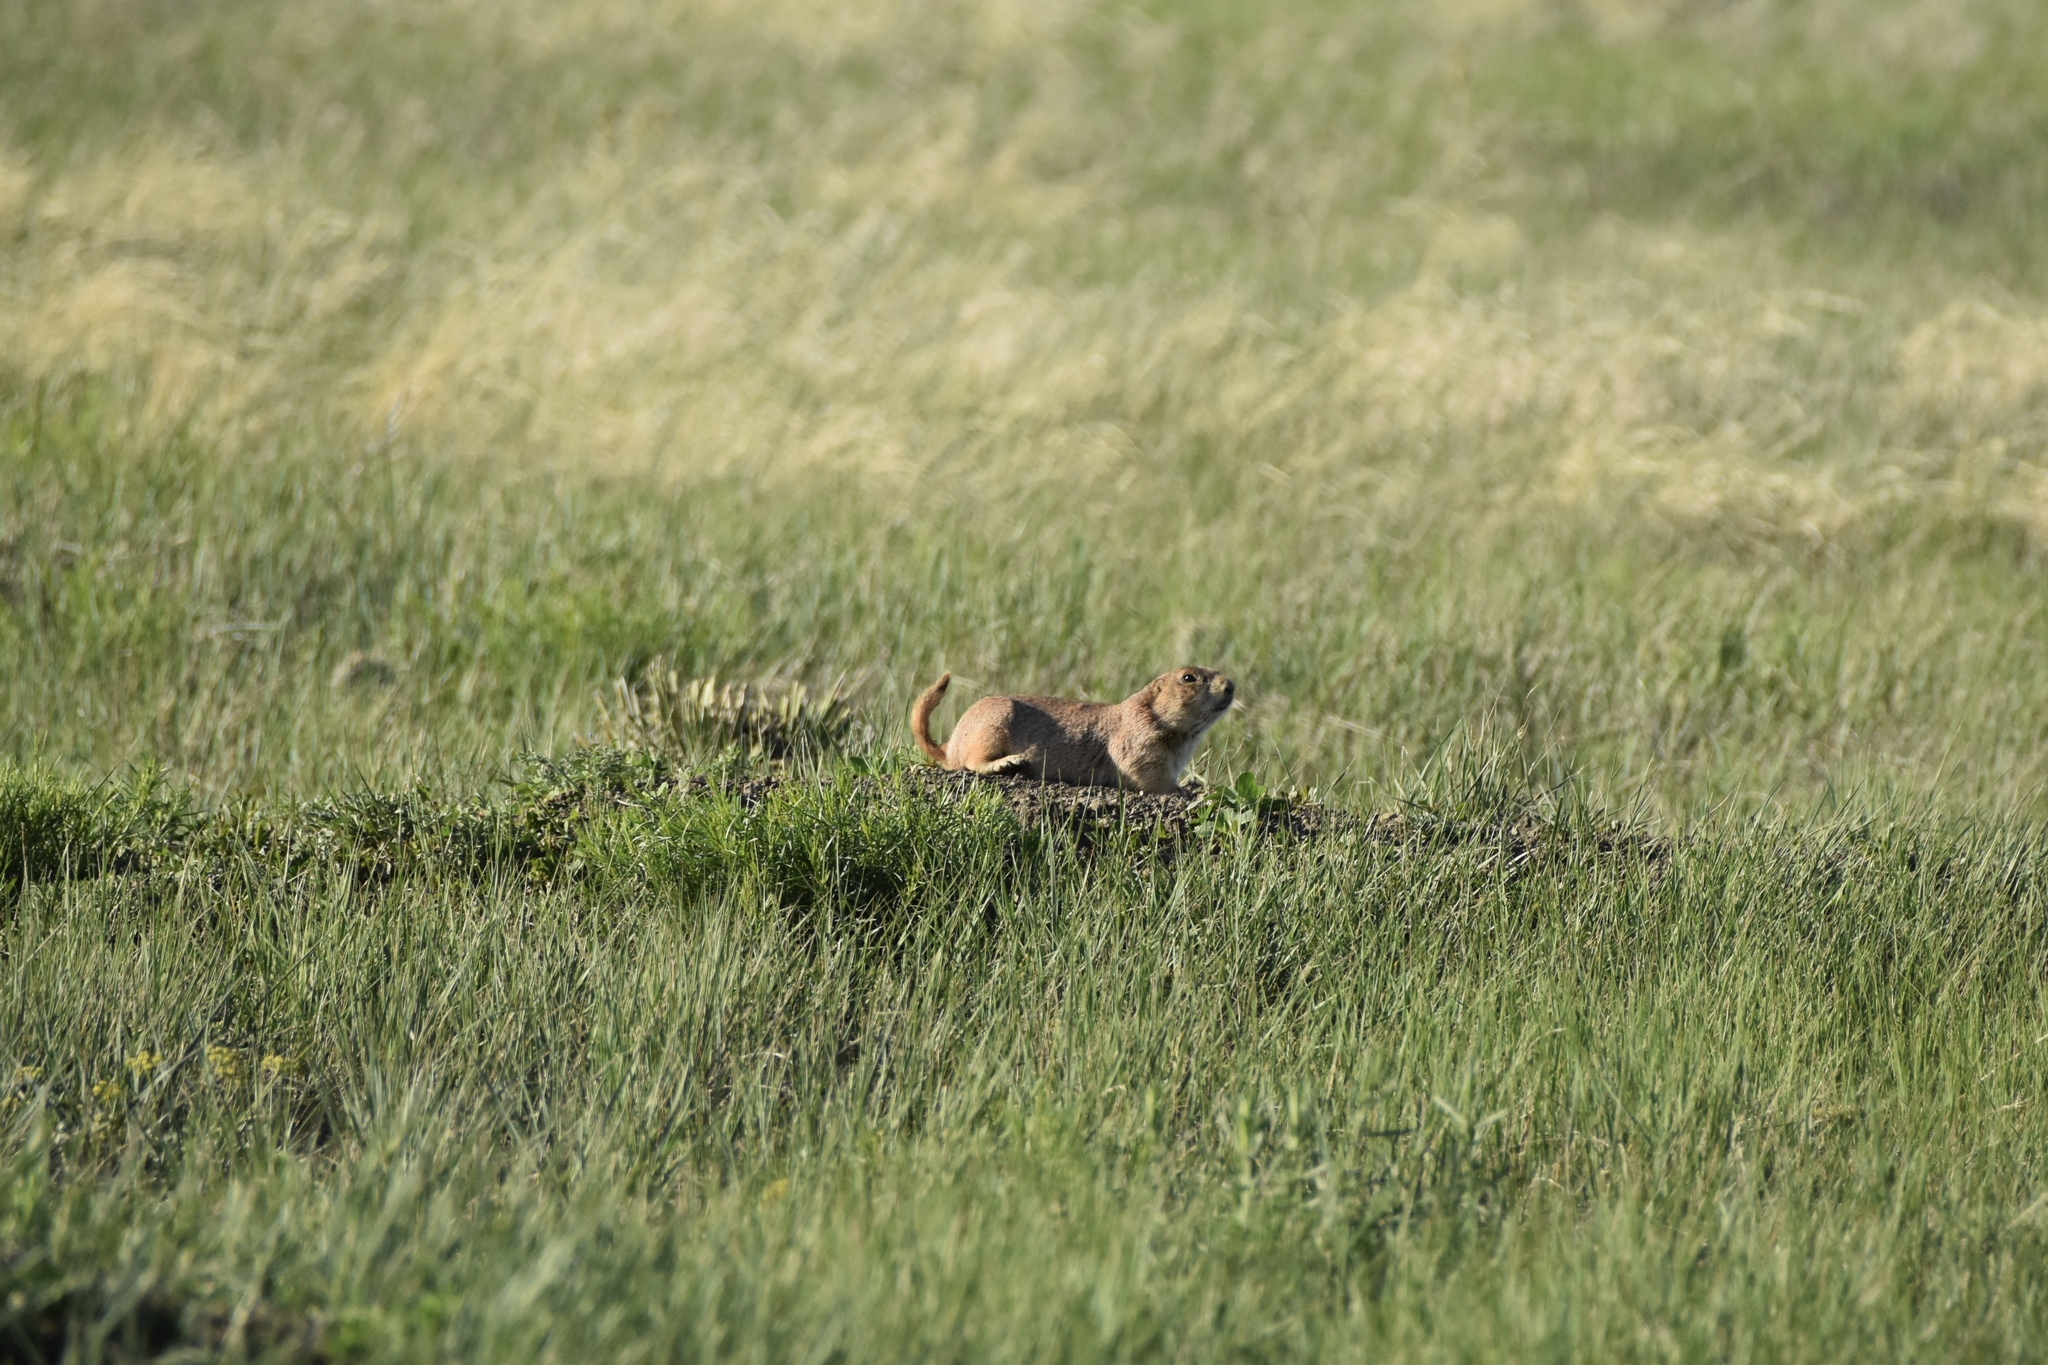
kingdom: Animalia
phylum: Chordata
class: Mammalia
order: Rodentia
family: Sciuridae
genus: Cynomys
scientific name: Cynomys ludovicianus
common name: Black-tailed prairie dog
